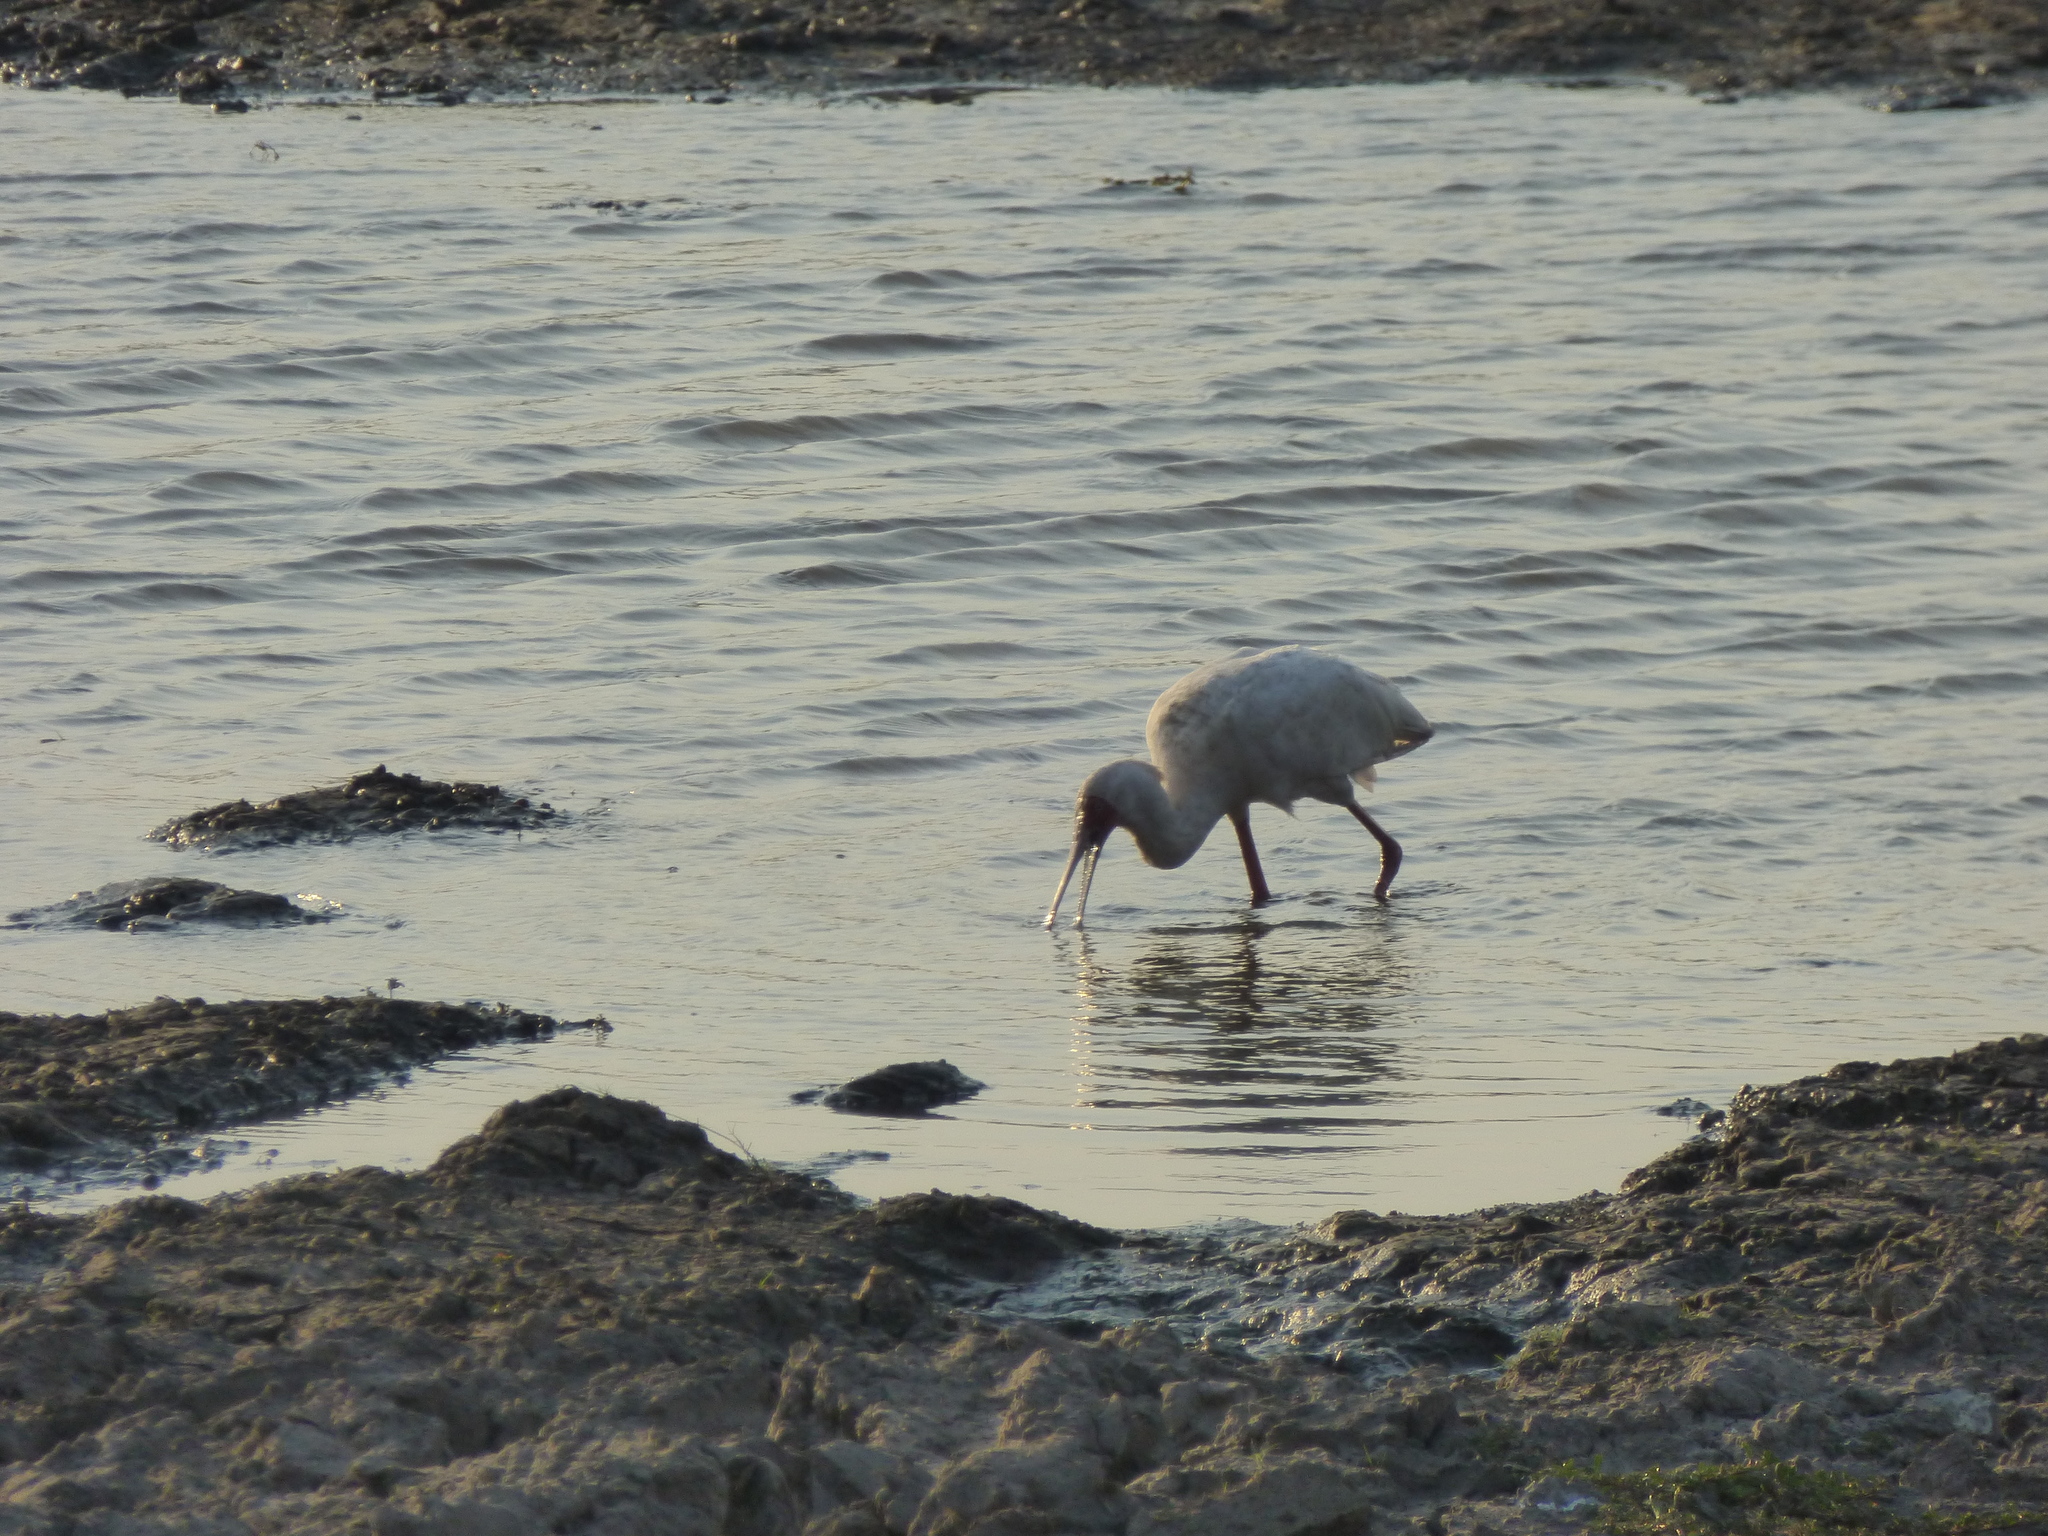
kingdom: Animalia
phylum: Chordata
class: Aves
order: Pelecaniformes
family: Threskiornithidae
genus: Platalea
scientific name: Platalea alba
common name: African spoonbill
